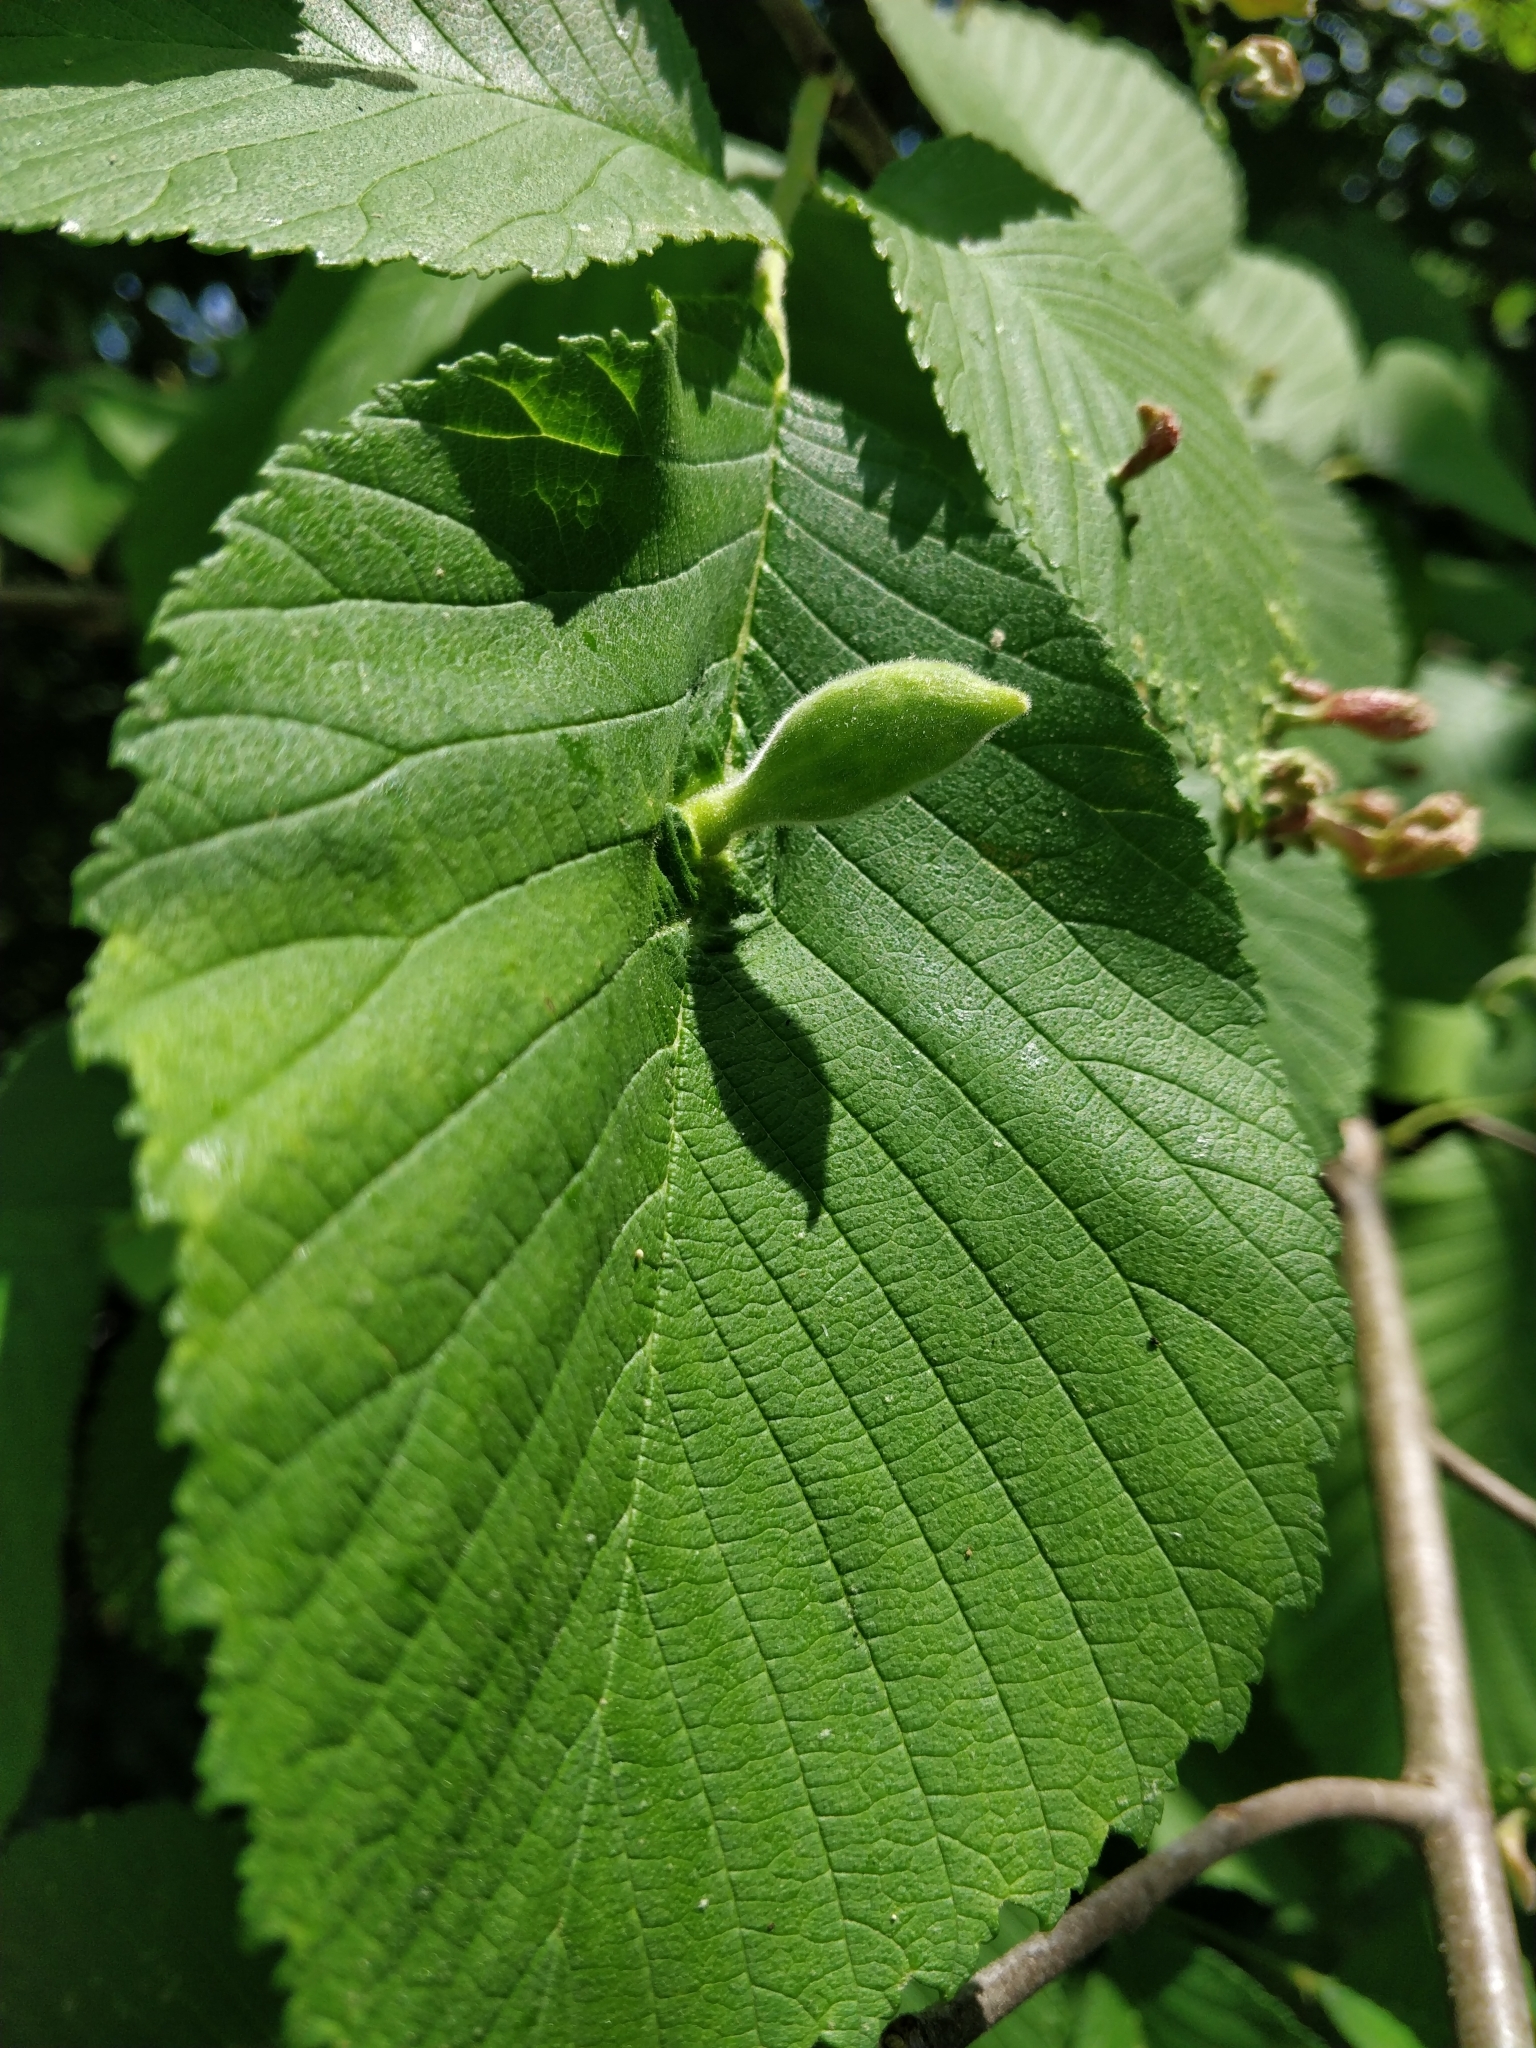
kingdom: Animalia
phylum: Arthropoda
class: Insecta
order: Hemiptera
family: Aphididae
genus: Kaltenbachiella
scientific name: Kaltenbachiella ulmifusa
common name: Elm pouchgall aphid
